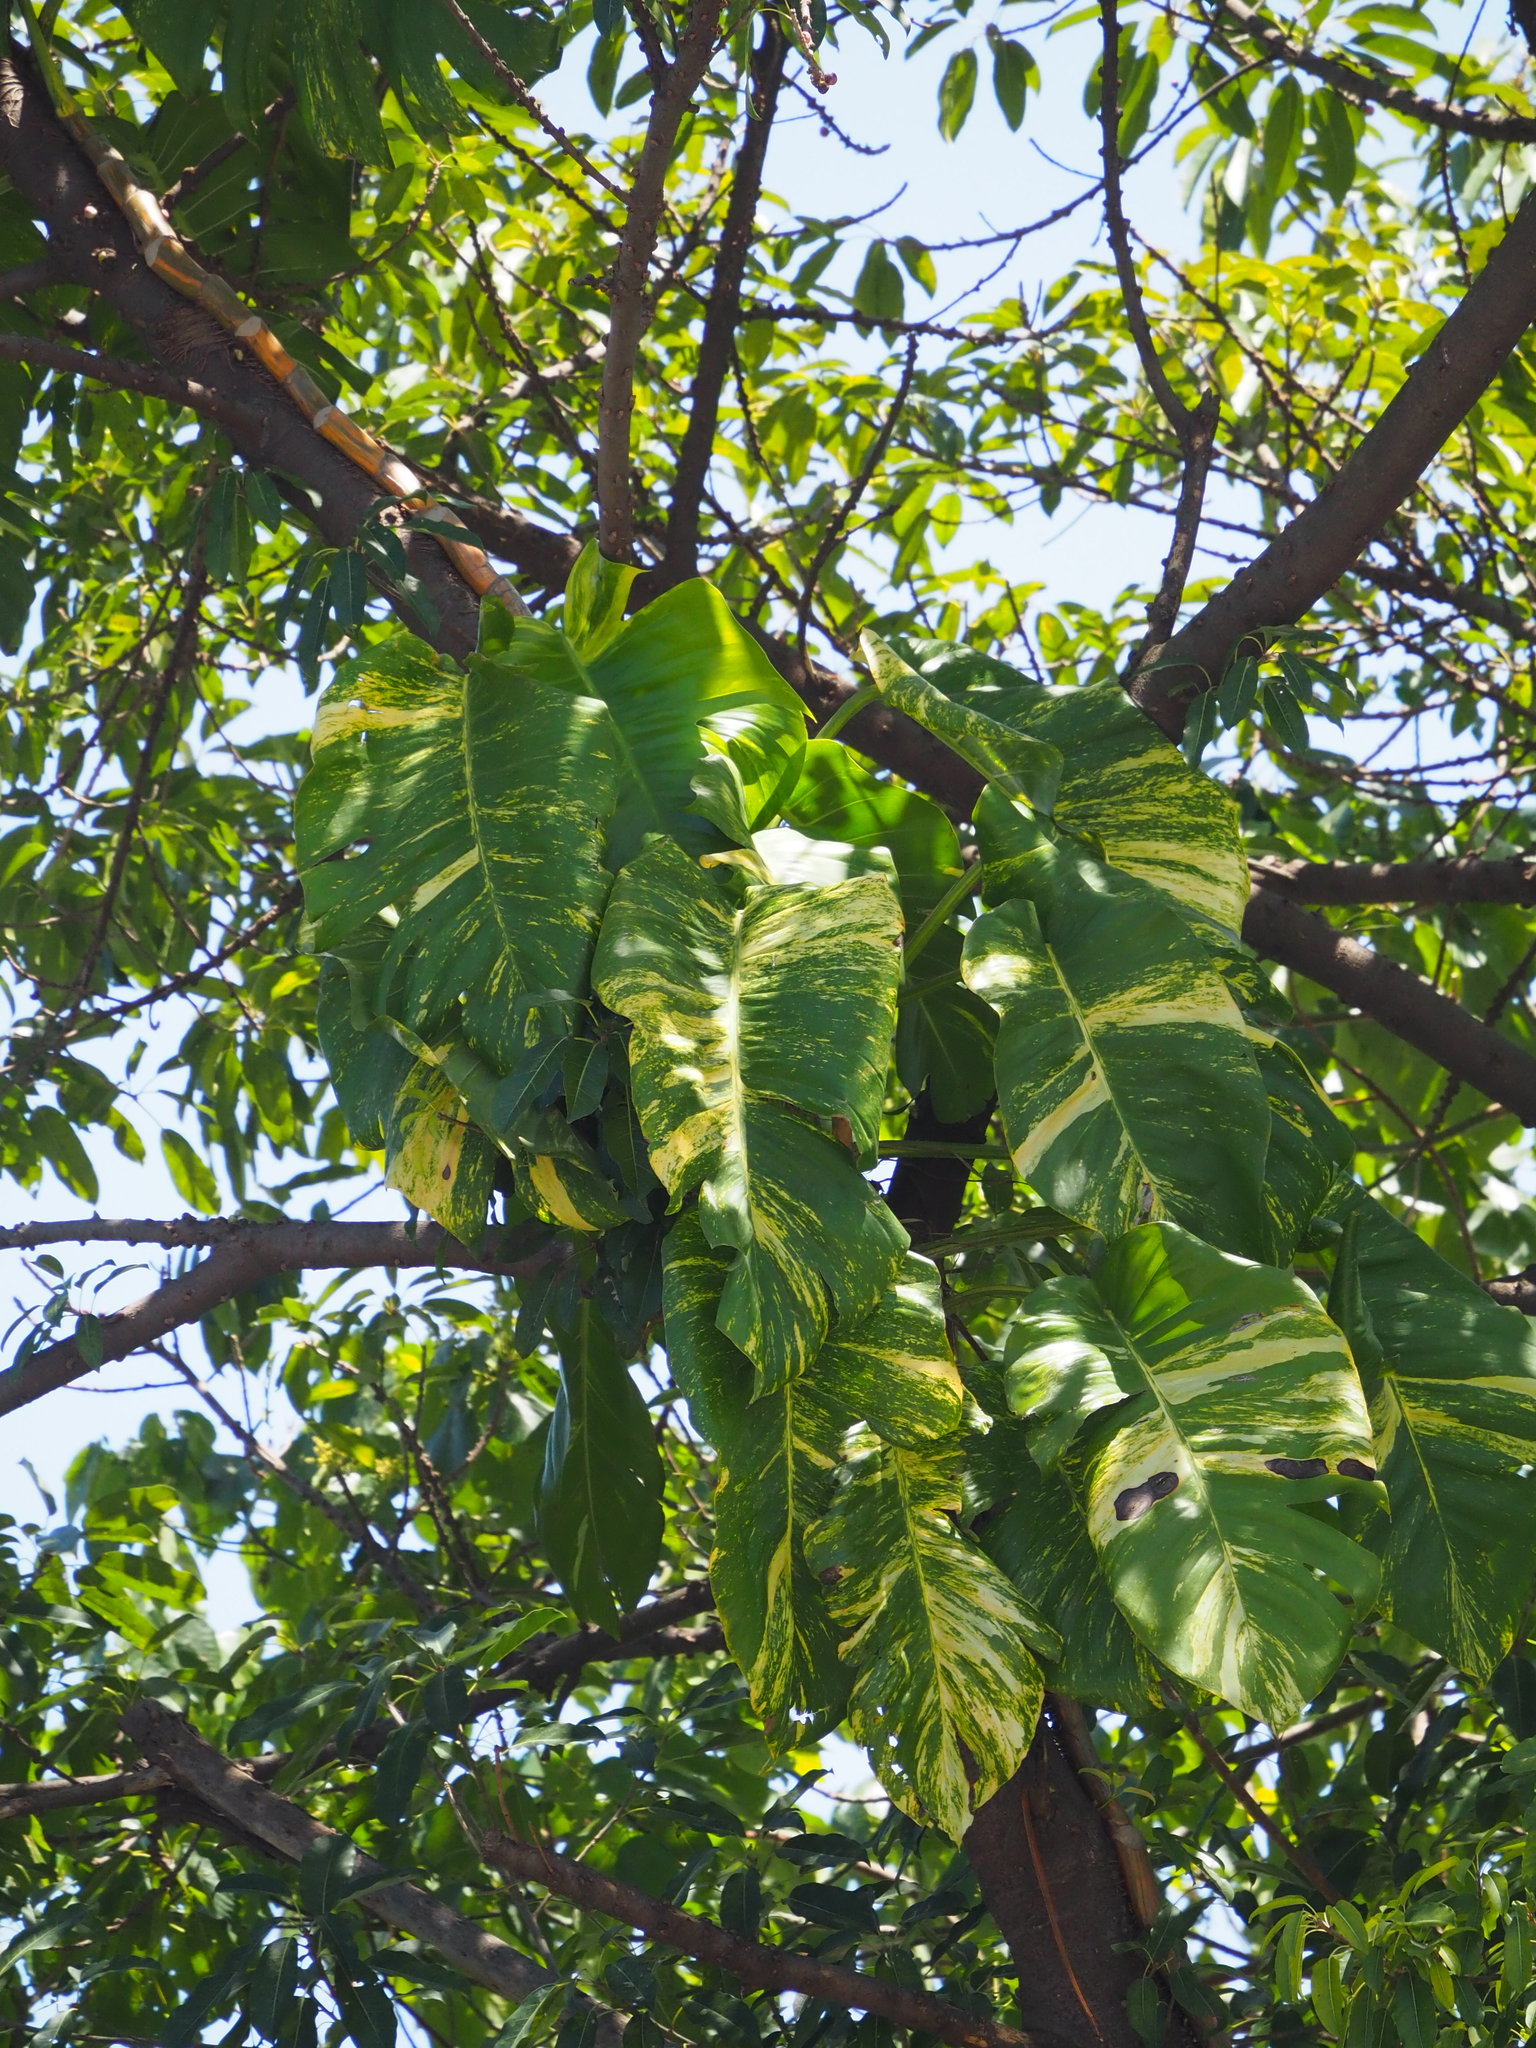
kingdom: Plantae
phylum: Tracheophyta
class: Liliopsida
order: Alismatales
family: Araceae
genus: Epipremnum
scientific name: Epipremnum aureum
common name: Golden hunter's-robe
